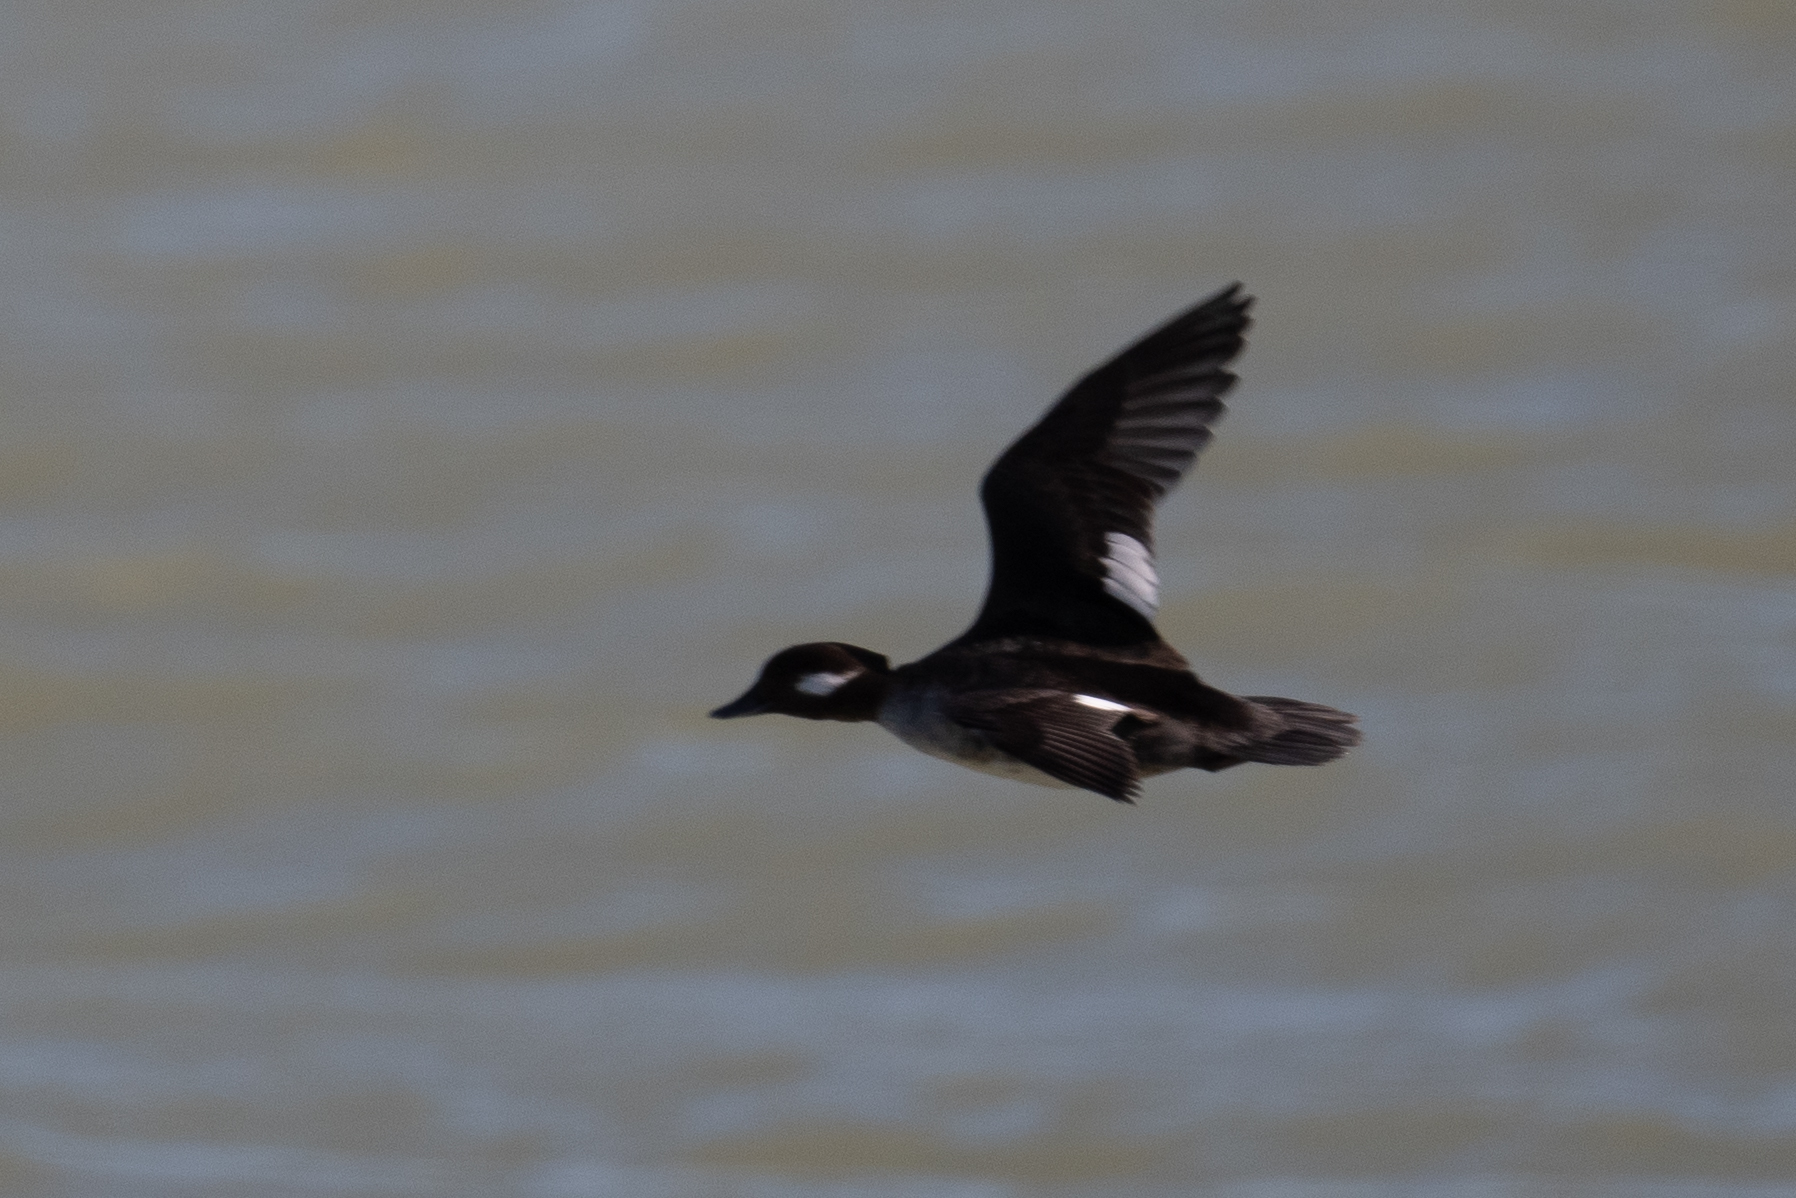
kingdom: Animalia
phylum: Chordata
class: Aves
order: Anseriformes
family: Anatidae
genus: Bucephala
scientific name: Bucephala albeola
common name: Bufflehead
